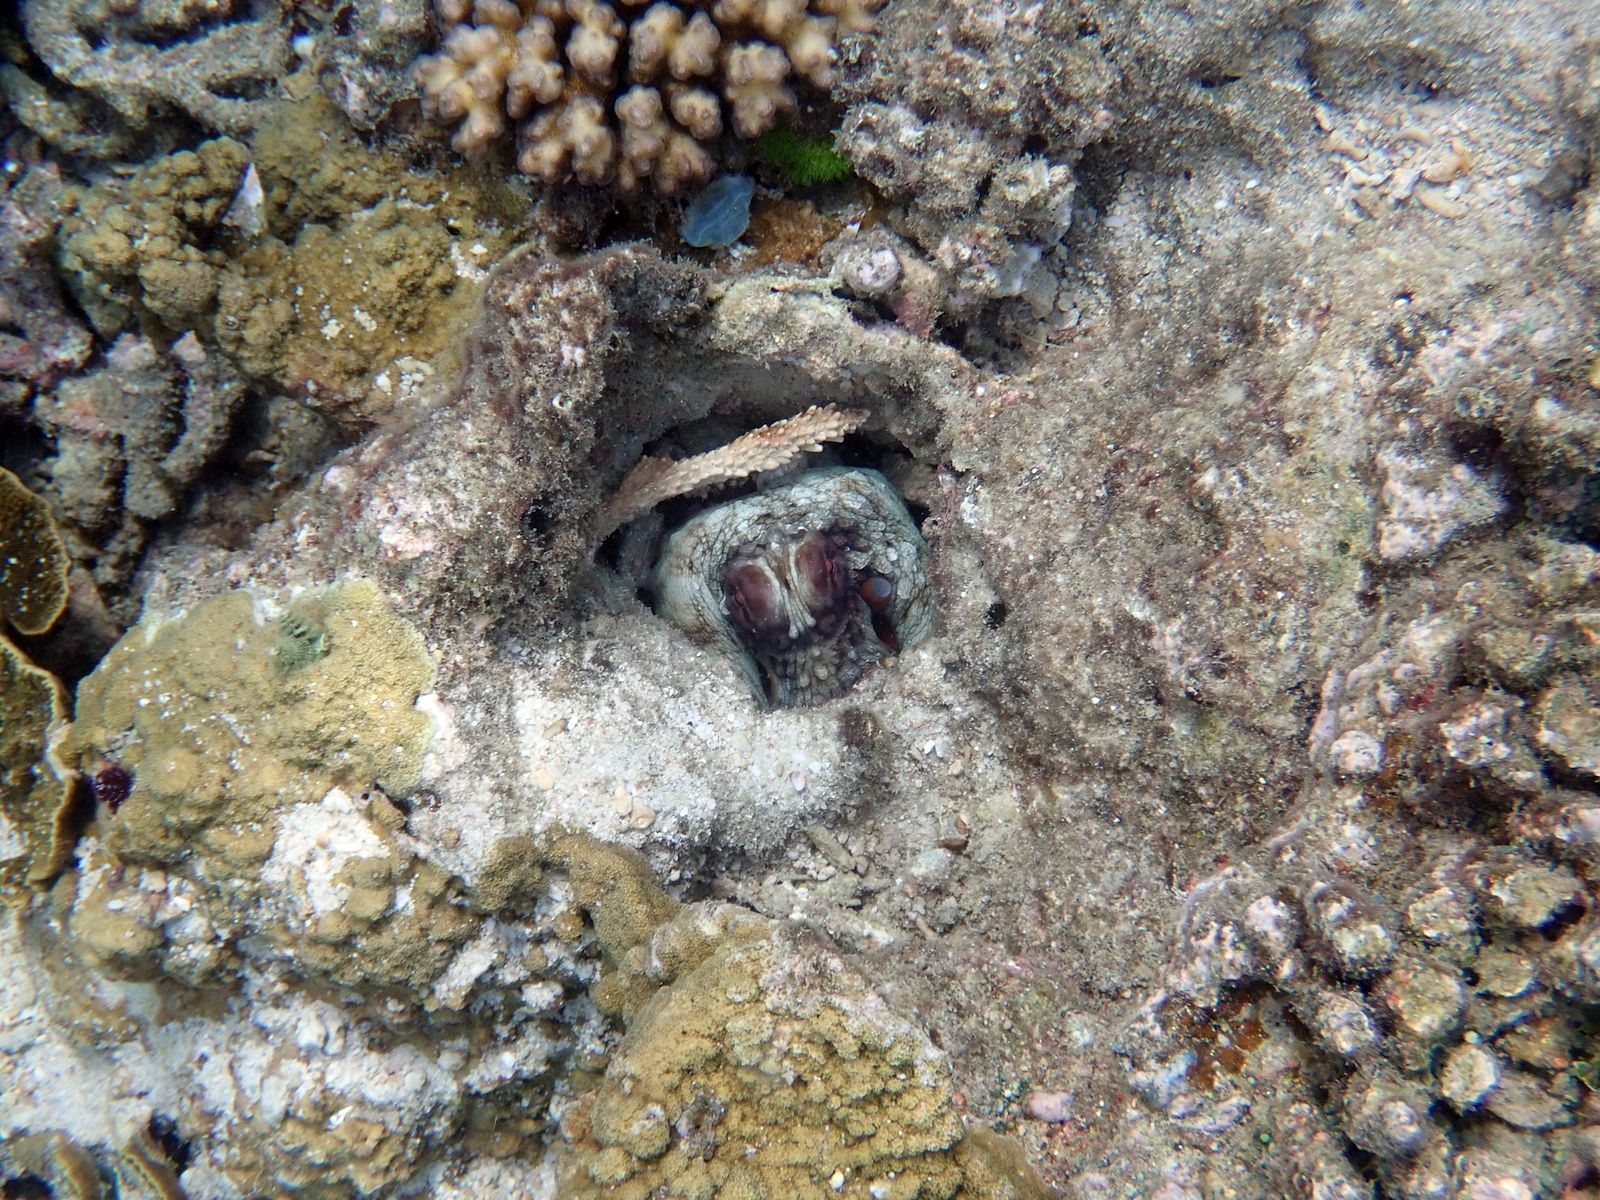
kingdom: Animalia
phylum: Mollusca
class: Cephalopoda
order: Octopoda
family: Octopodidae
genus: Octopus
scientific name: Octopus cyanea
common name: Cyane's octopus
